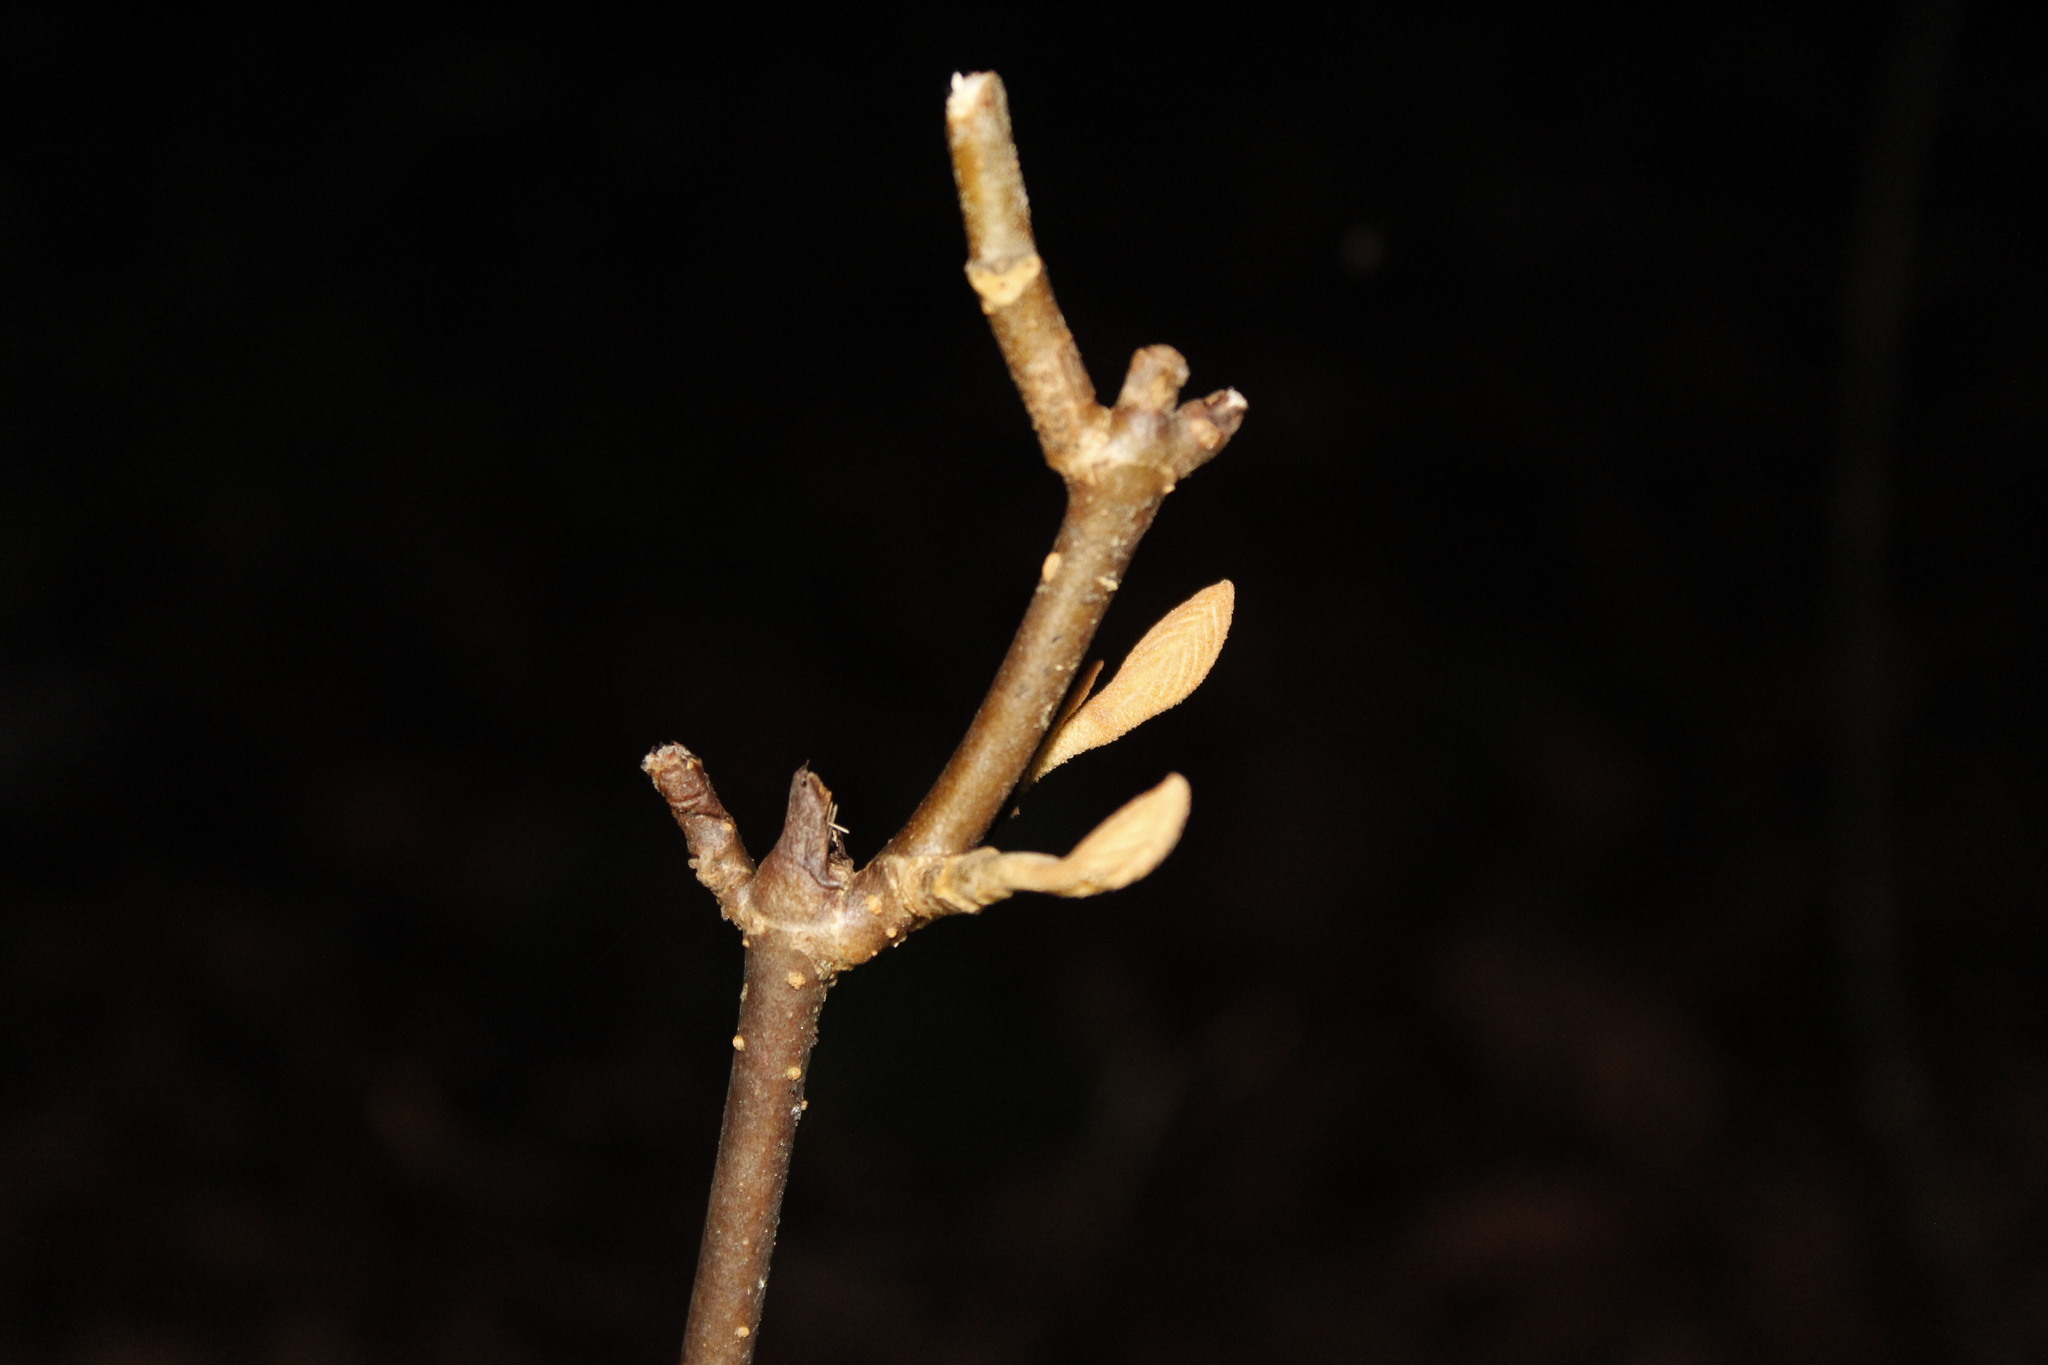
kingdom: Plantae
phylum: Tracheophyta
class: Magnoliopsida
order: Dipsacales
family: Viburnaceae
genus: Viburnum
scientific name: Viburnum lantanoides
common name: Hobblebush
